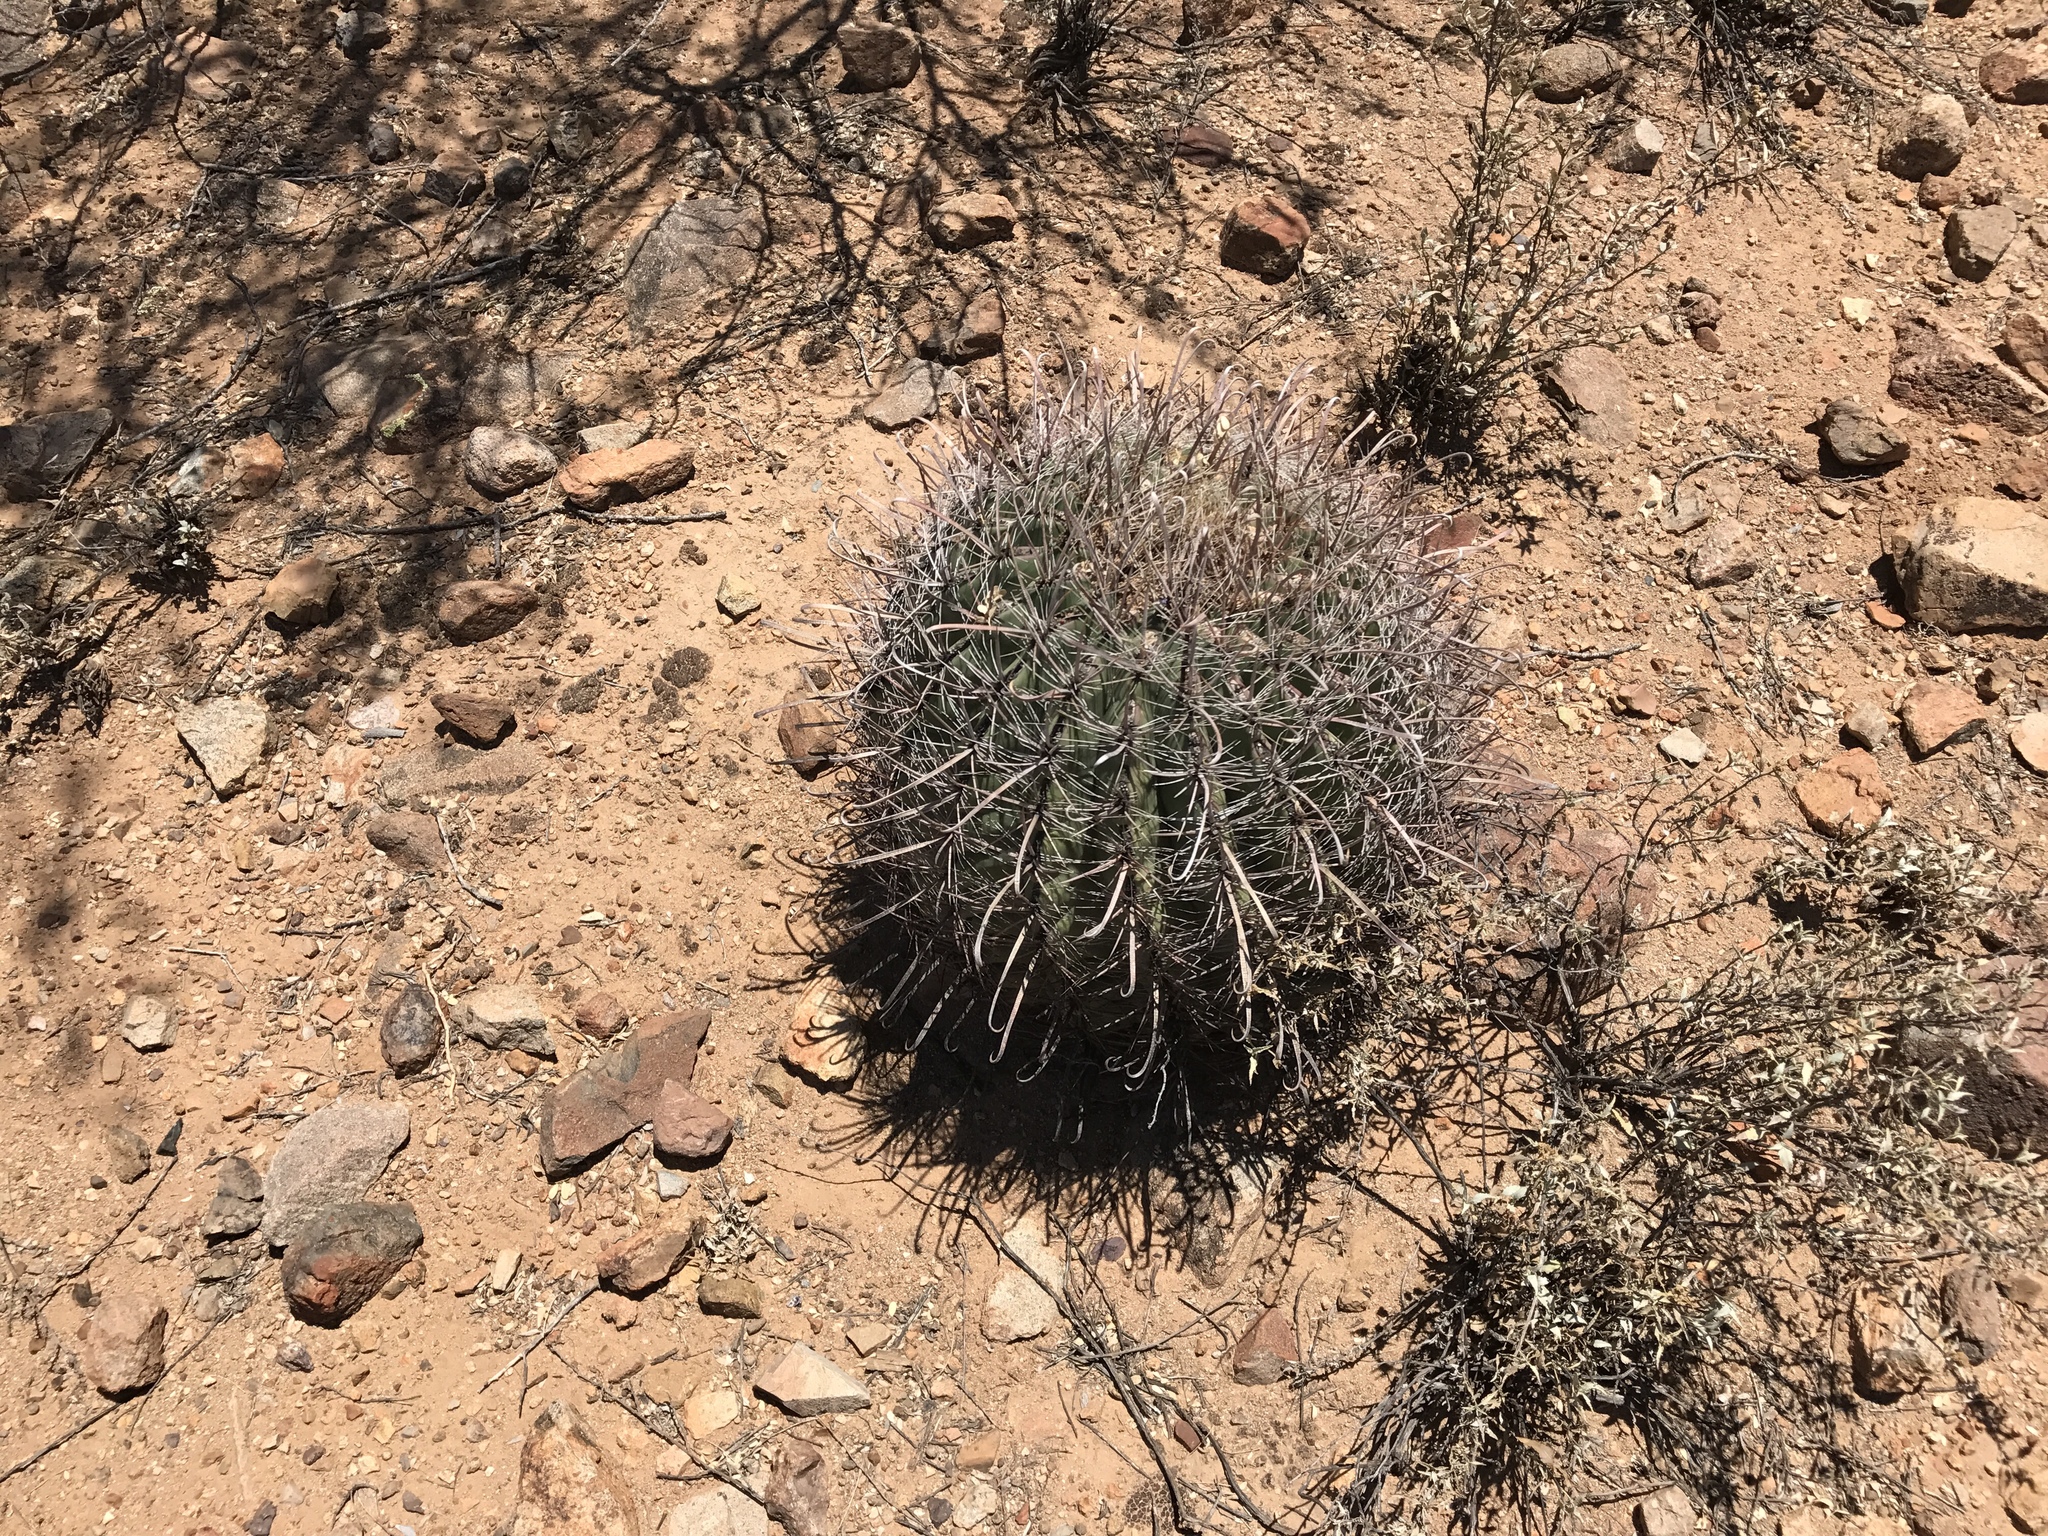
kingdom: Plantae
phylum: Tracheophyta
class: Magnoliopsida
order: Caryophyllales
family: Cactaceae
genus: Ferocactus
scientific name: Ferocactus wislizeni
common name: Candy barrel cactus
